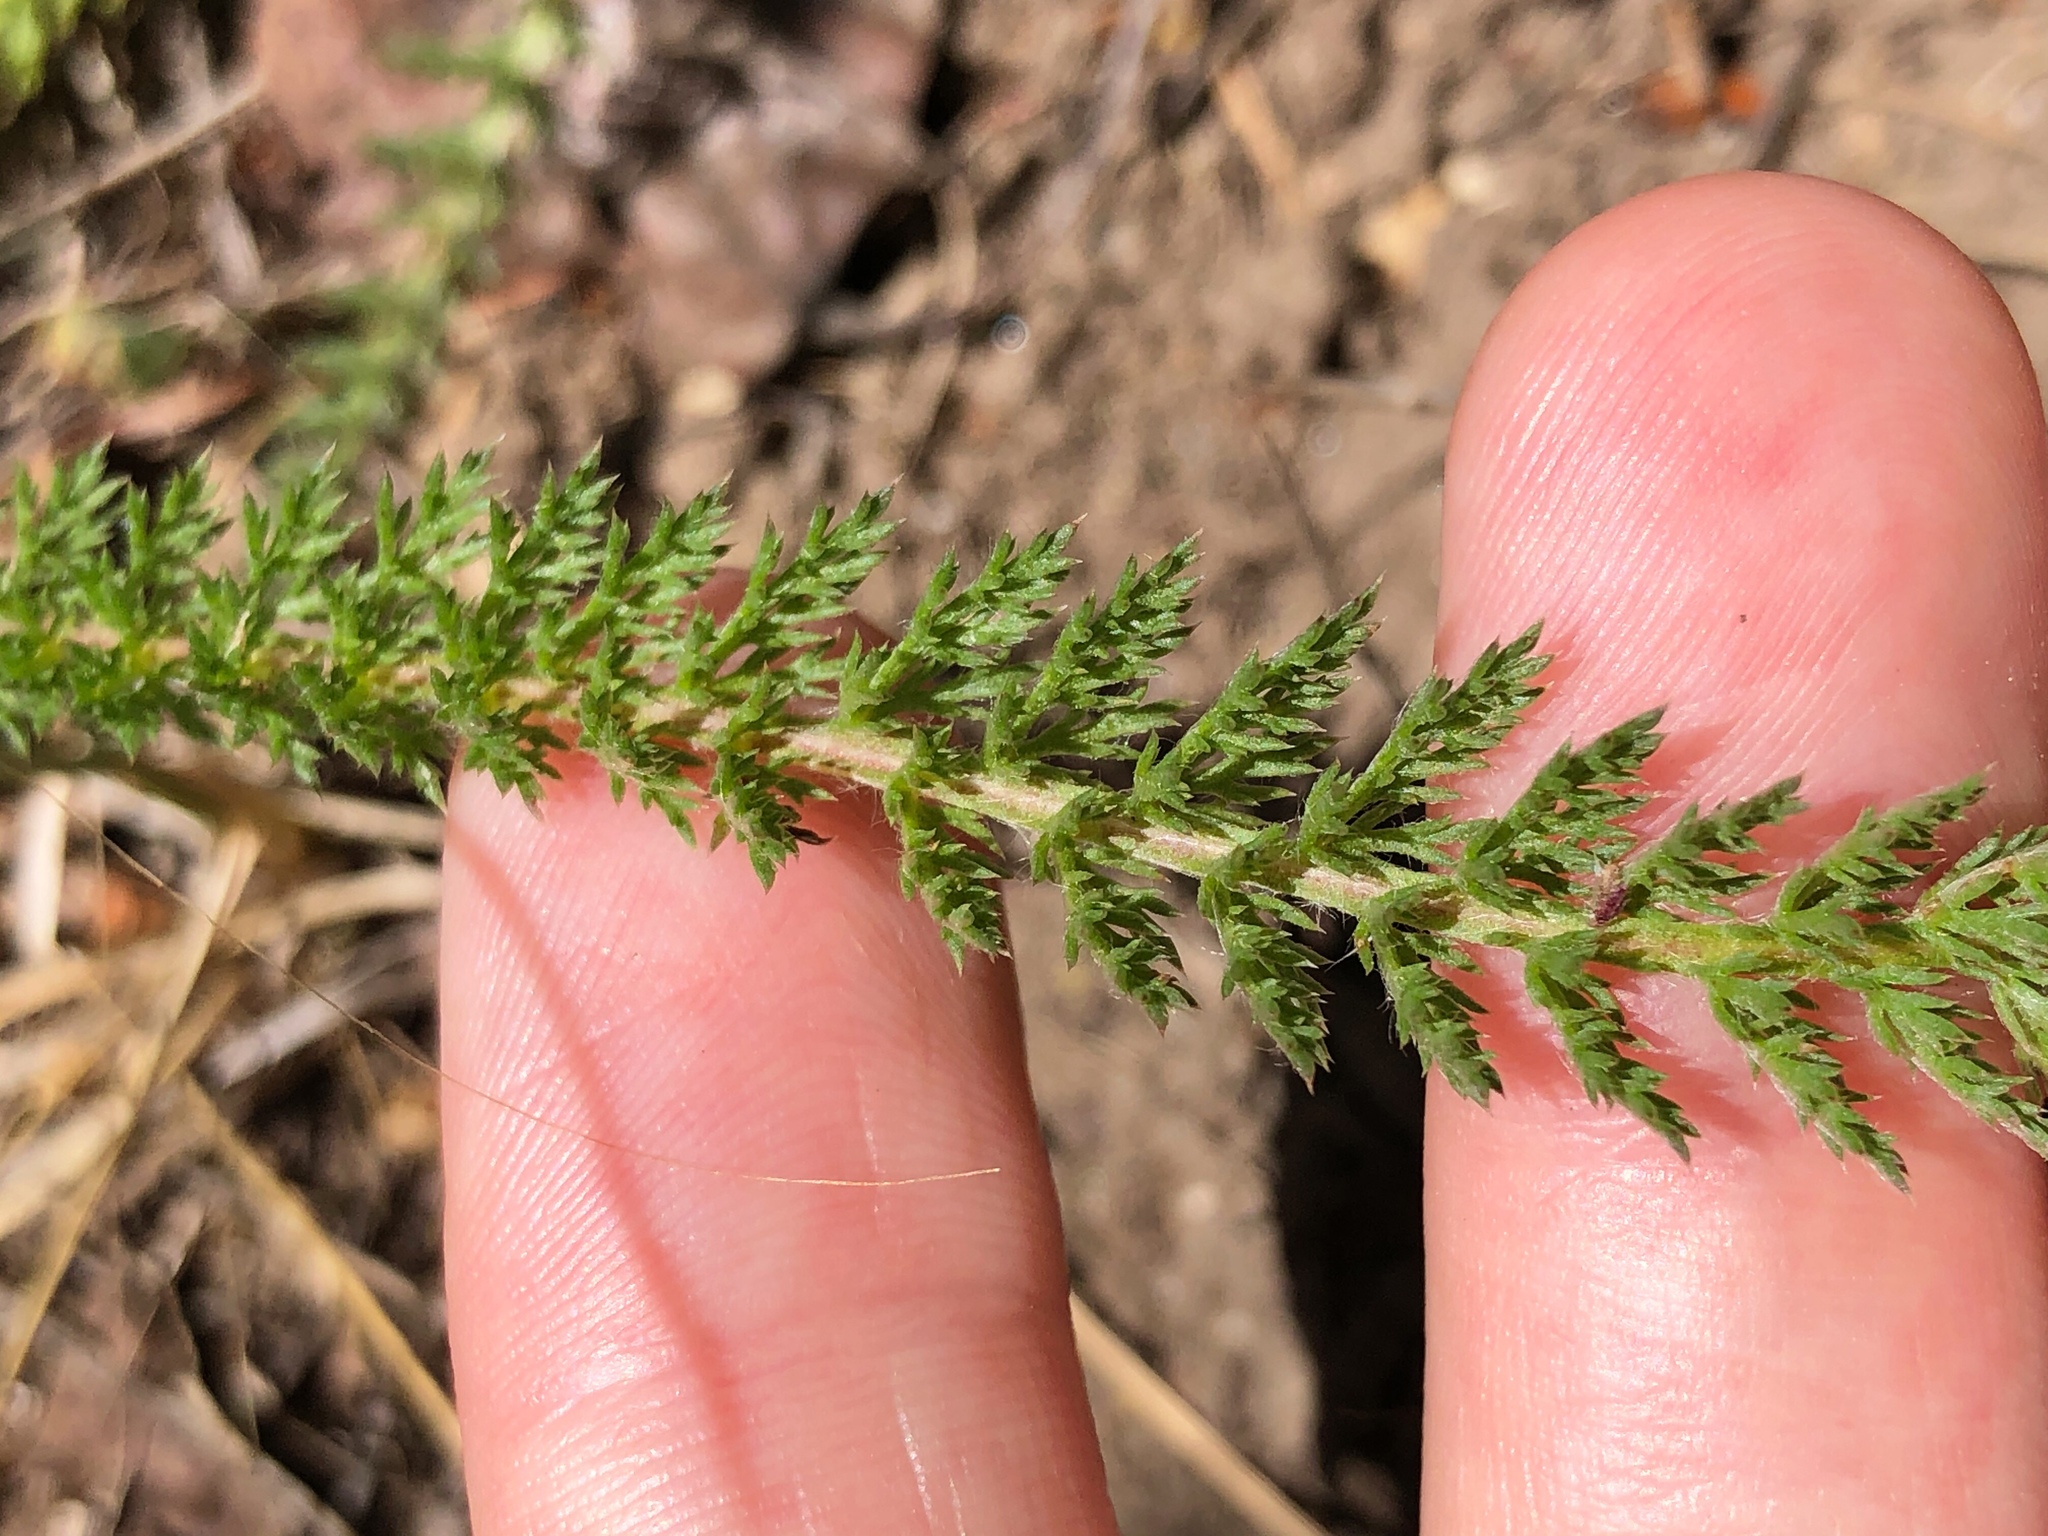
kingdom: Plantae
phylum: Tracheophyta
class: Magnoliopsida
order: Asterales
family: Asteraceae
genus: Achillea
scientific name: Achillea millefolium
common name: Yarrow
